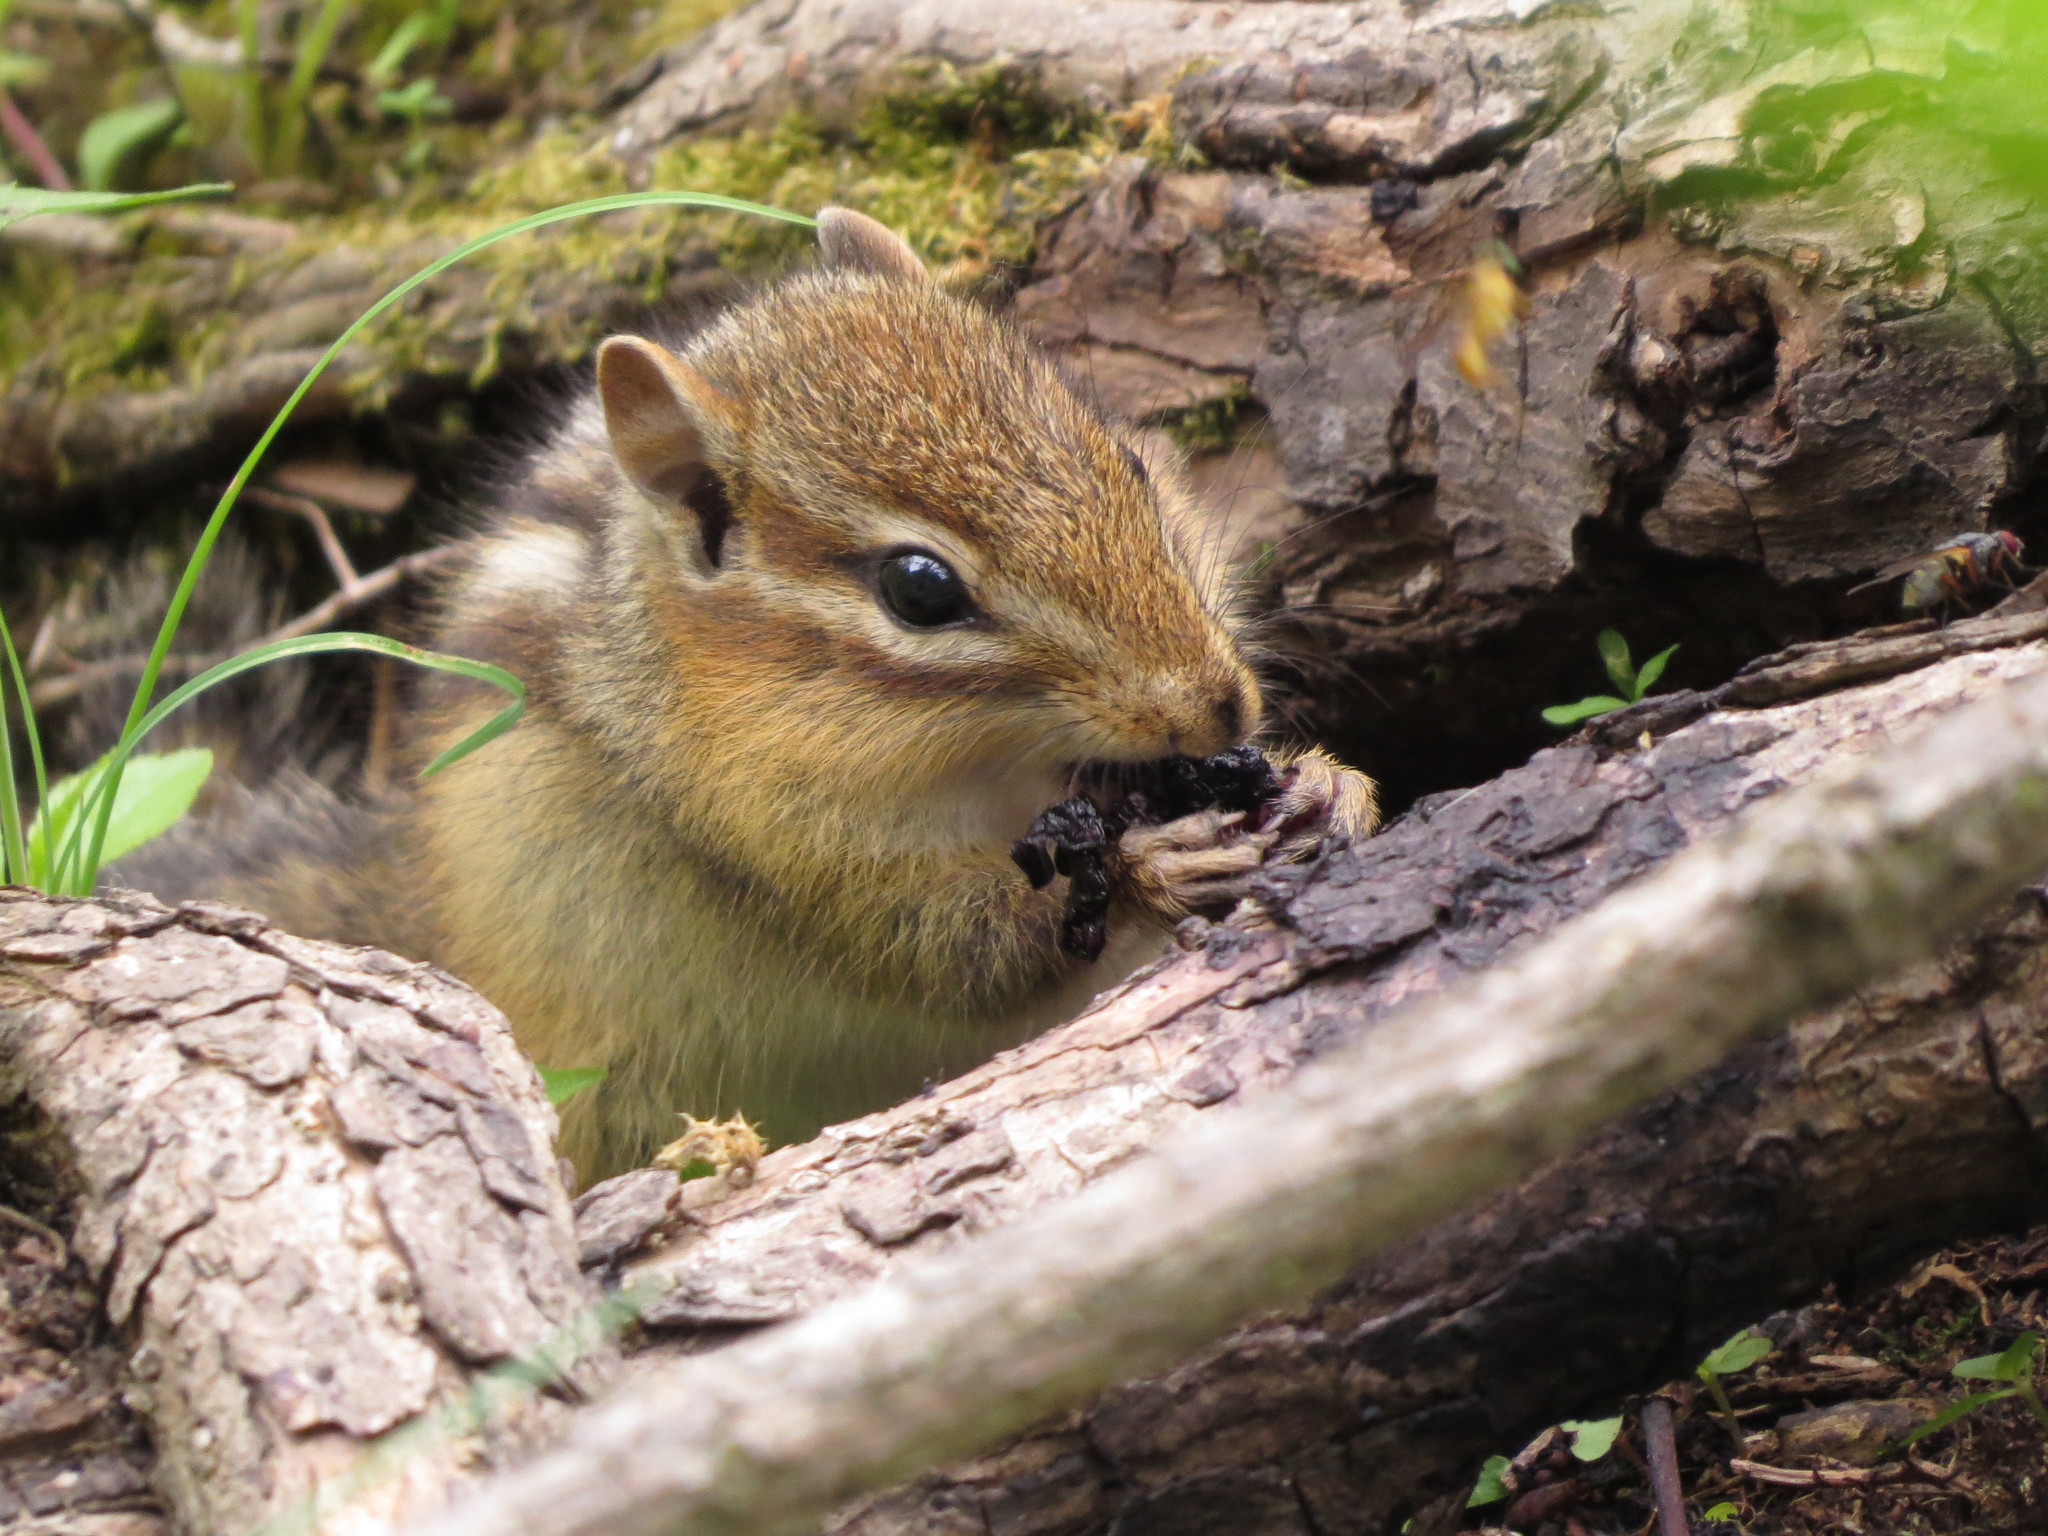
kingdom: Animalia
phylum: Chordata
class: Mammalia
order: Rodentia
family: Sciuridae
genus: Tamias
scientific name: Tamias striatus
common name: Eastern chipmunk
